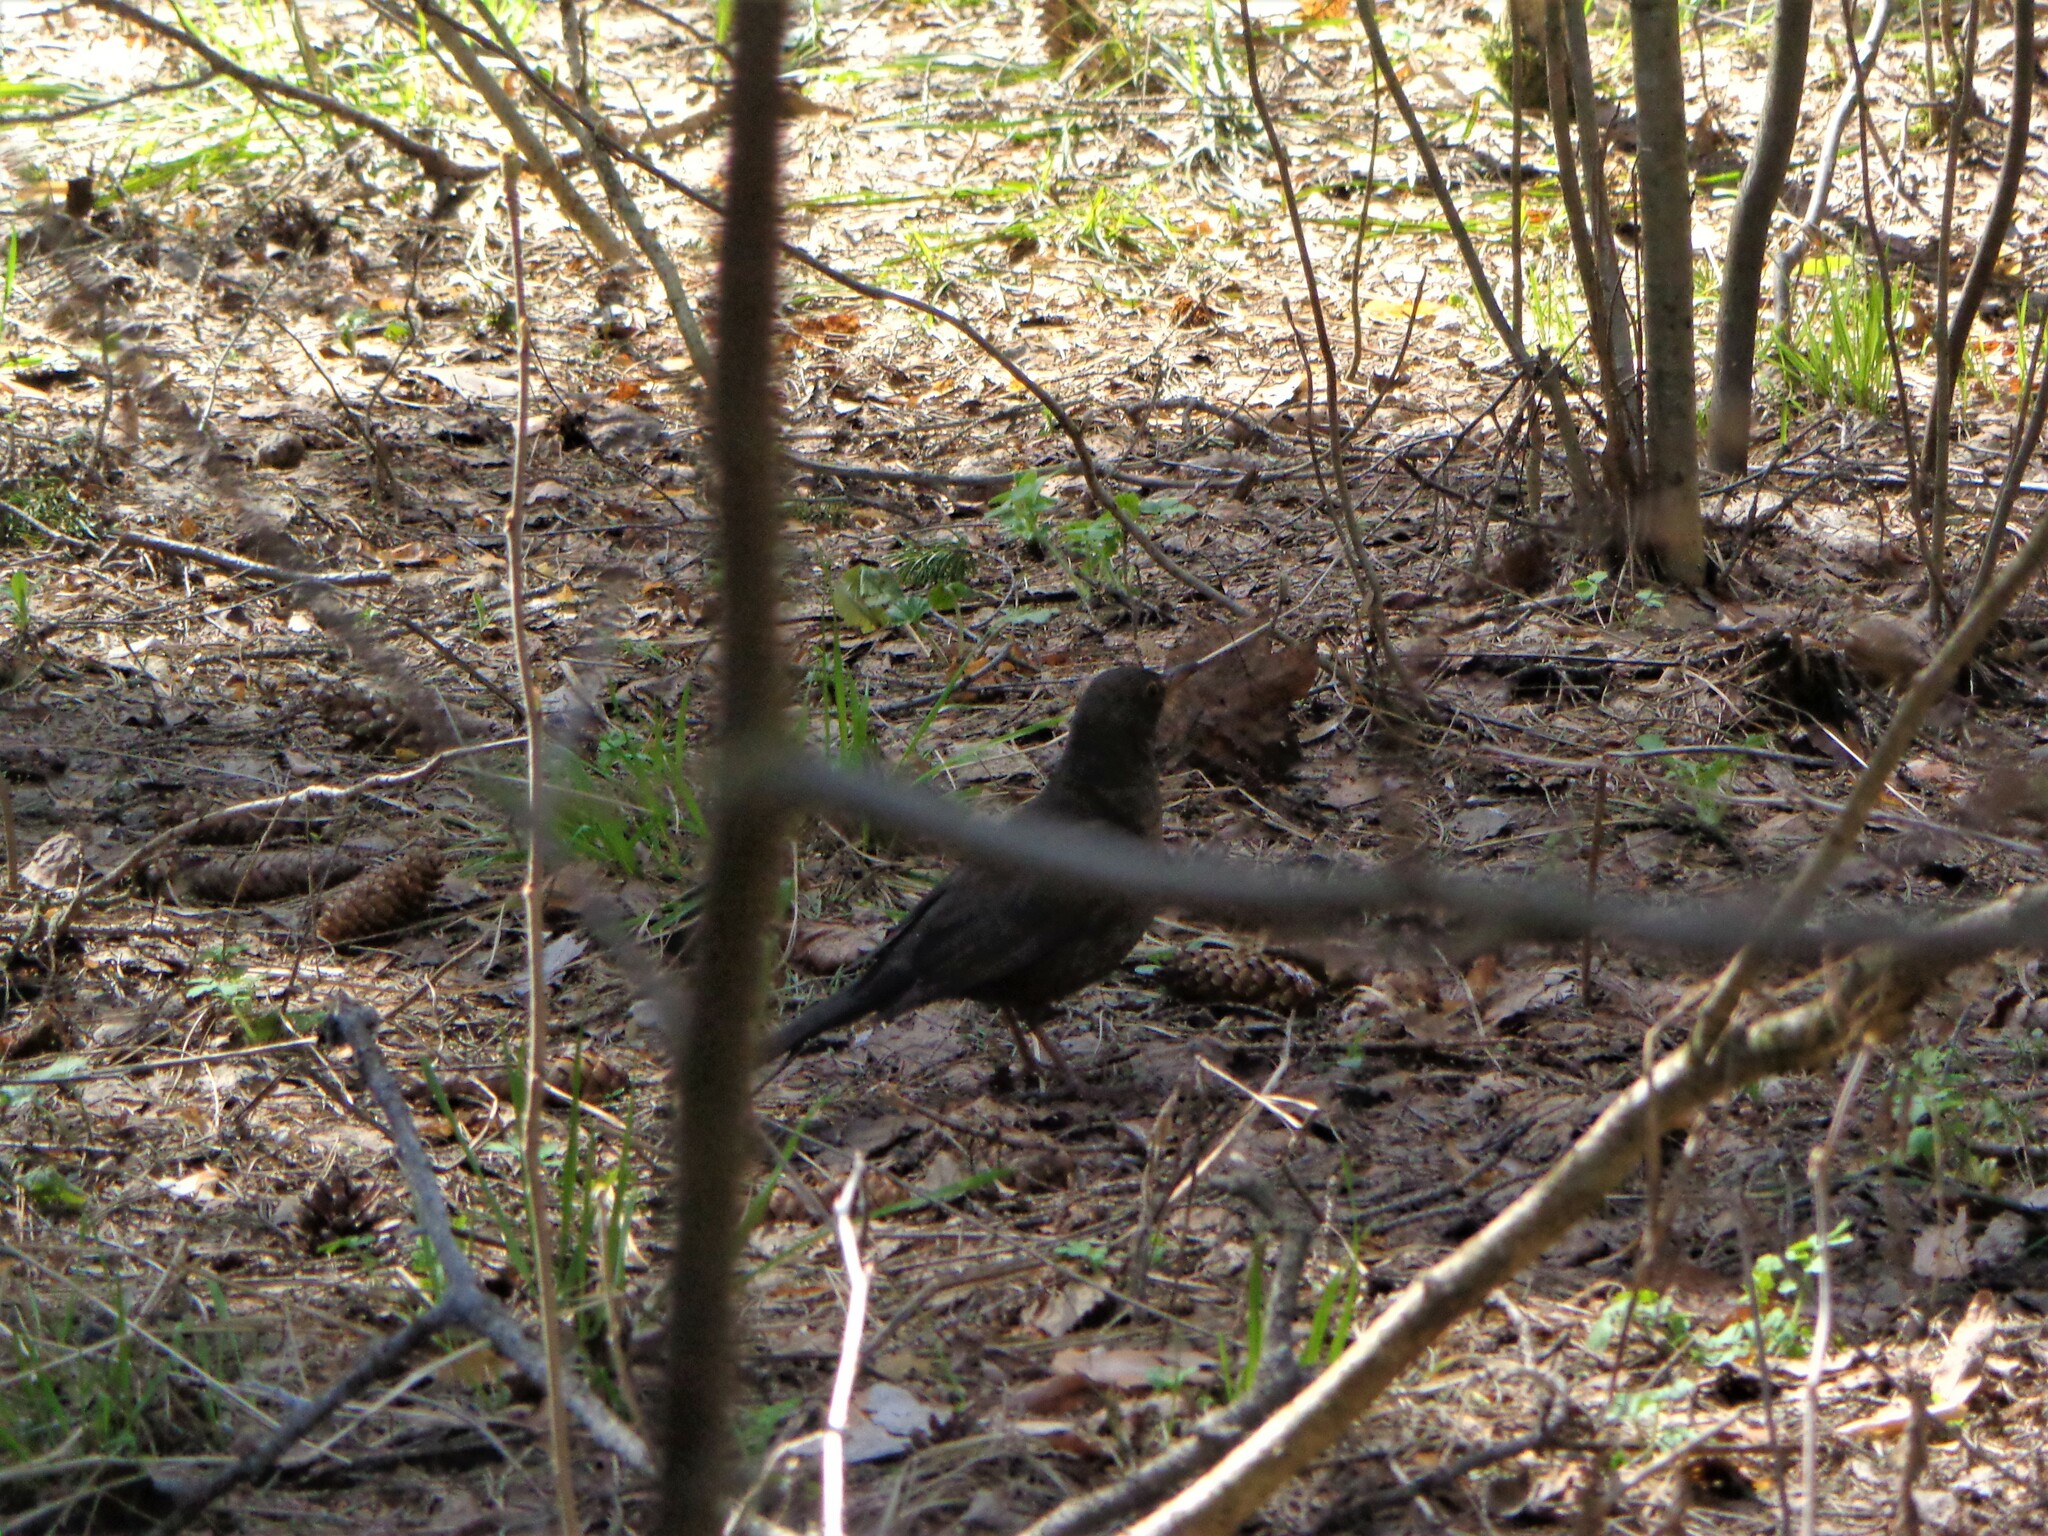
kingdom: Animalia
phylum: Chordata
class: Aves
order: Passeriformes
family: Turdidae
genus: Turdus
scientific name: Turdus merula
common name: Common blackbird
